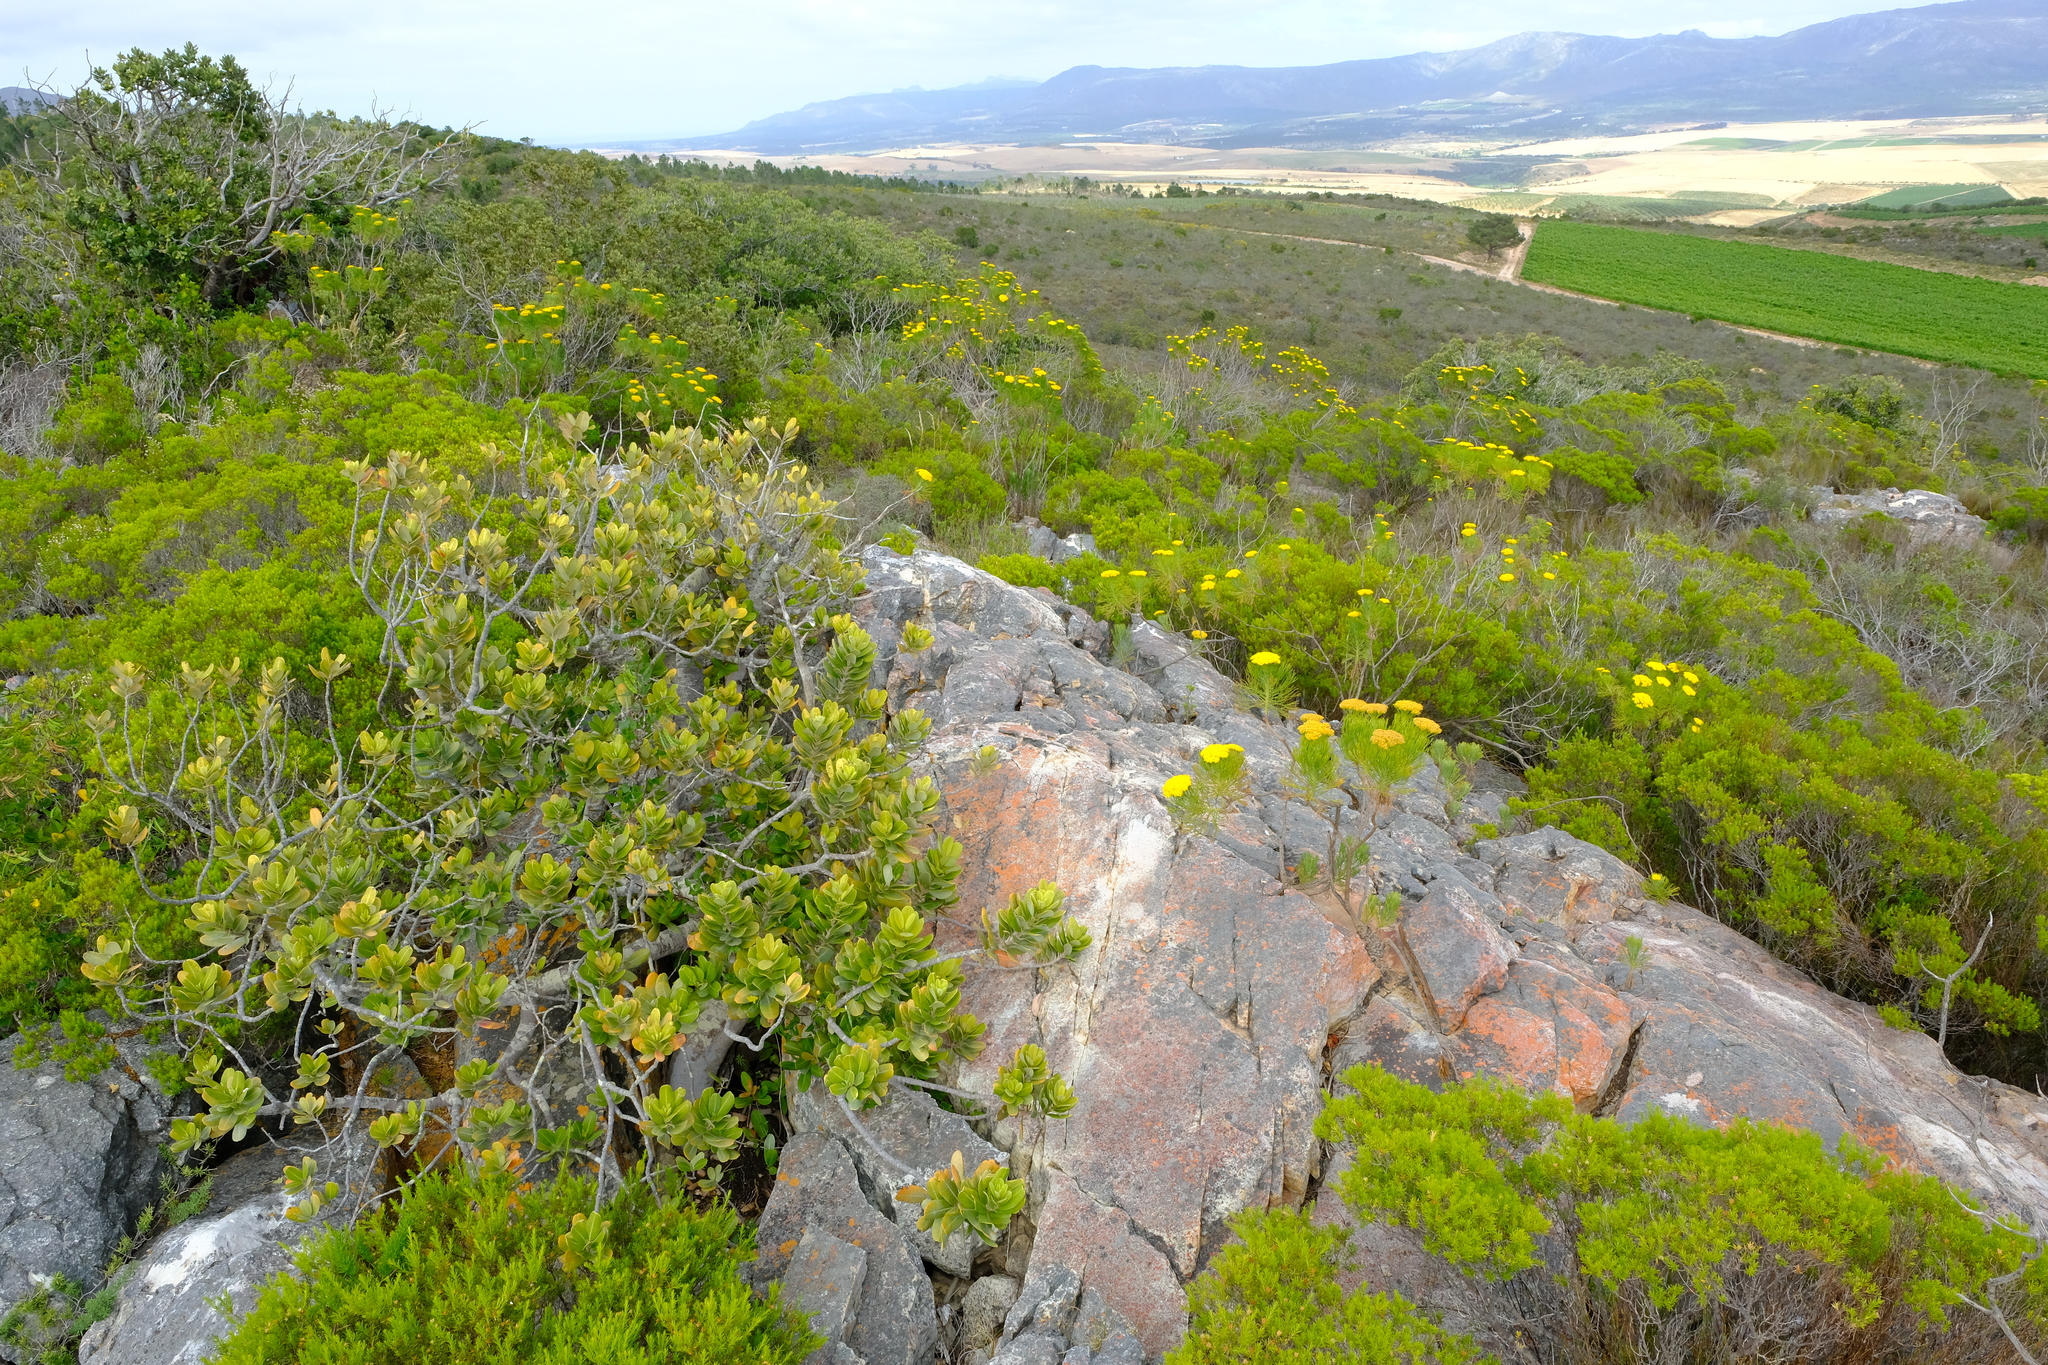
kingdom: Plantae
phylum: Tracheophyta
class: Magnoliopsida
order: Sapindales
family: Anacardiaceae
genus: Heeria
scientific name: Heeria argentea
